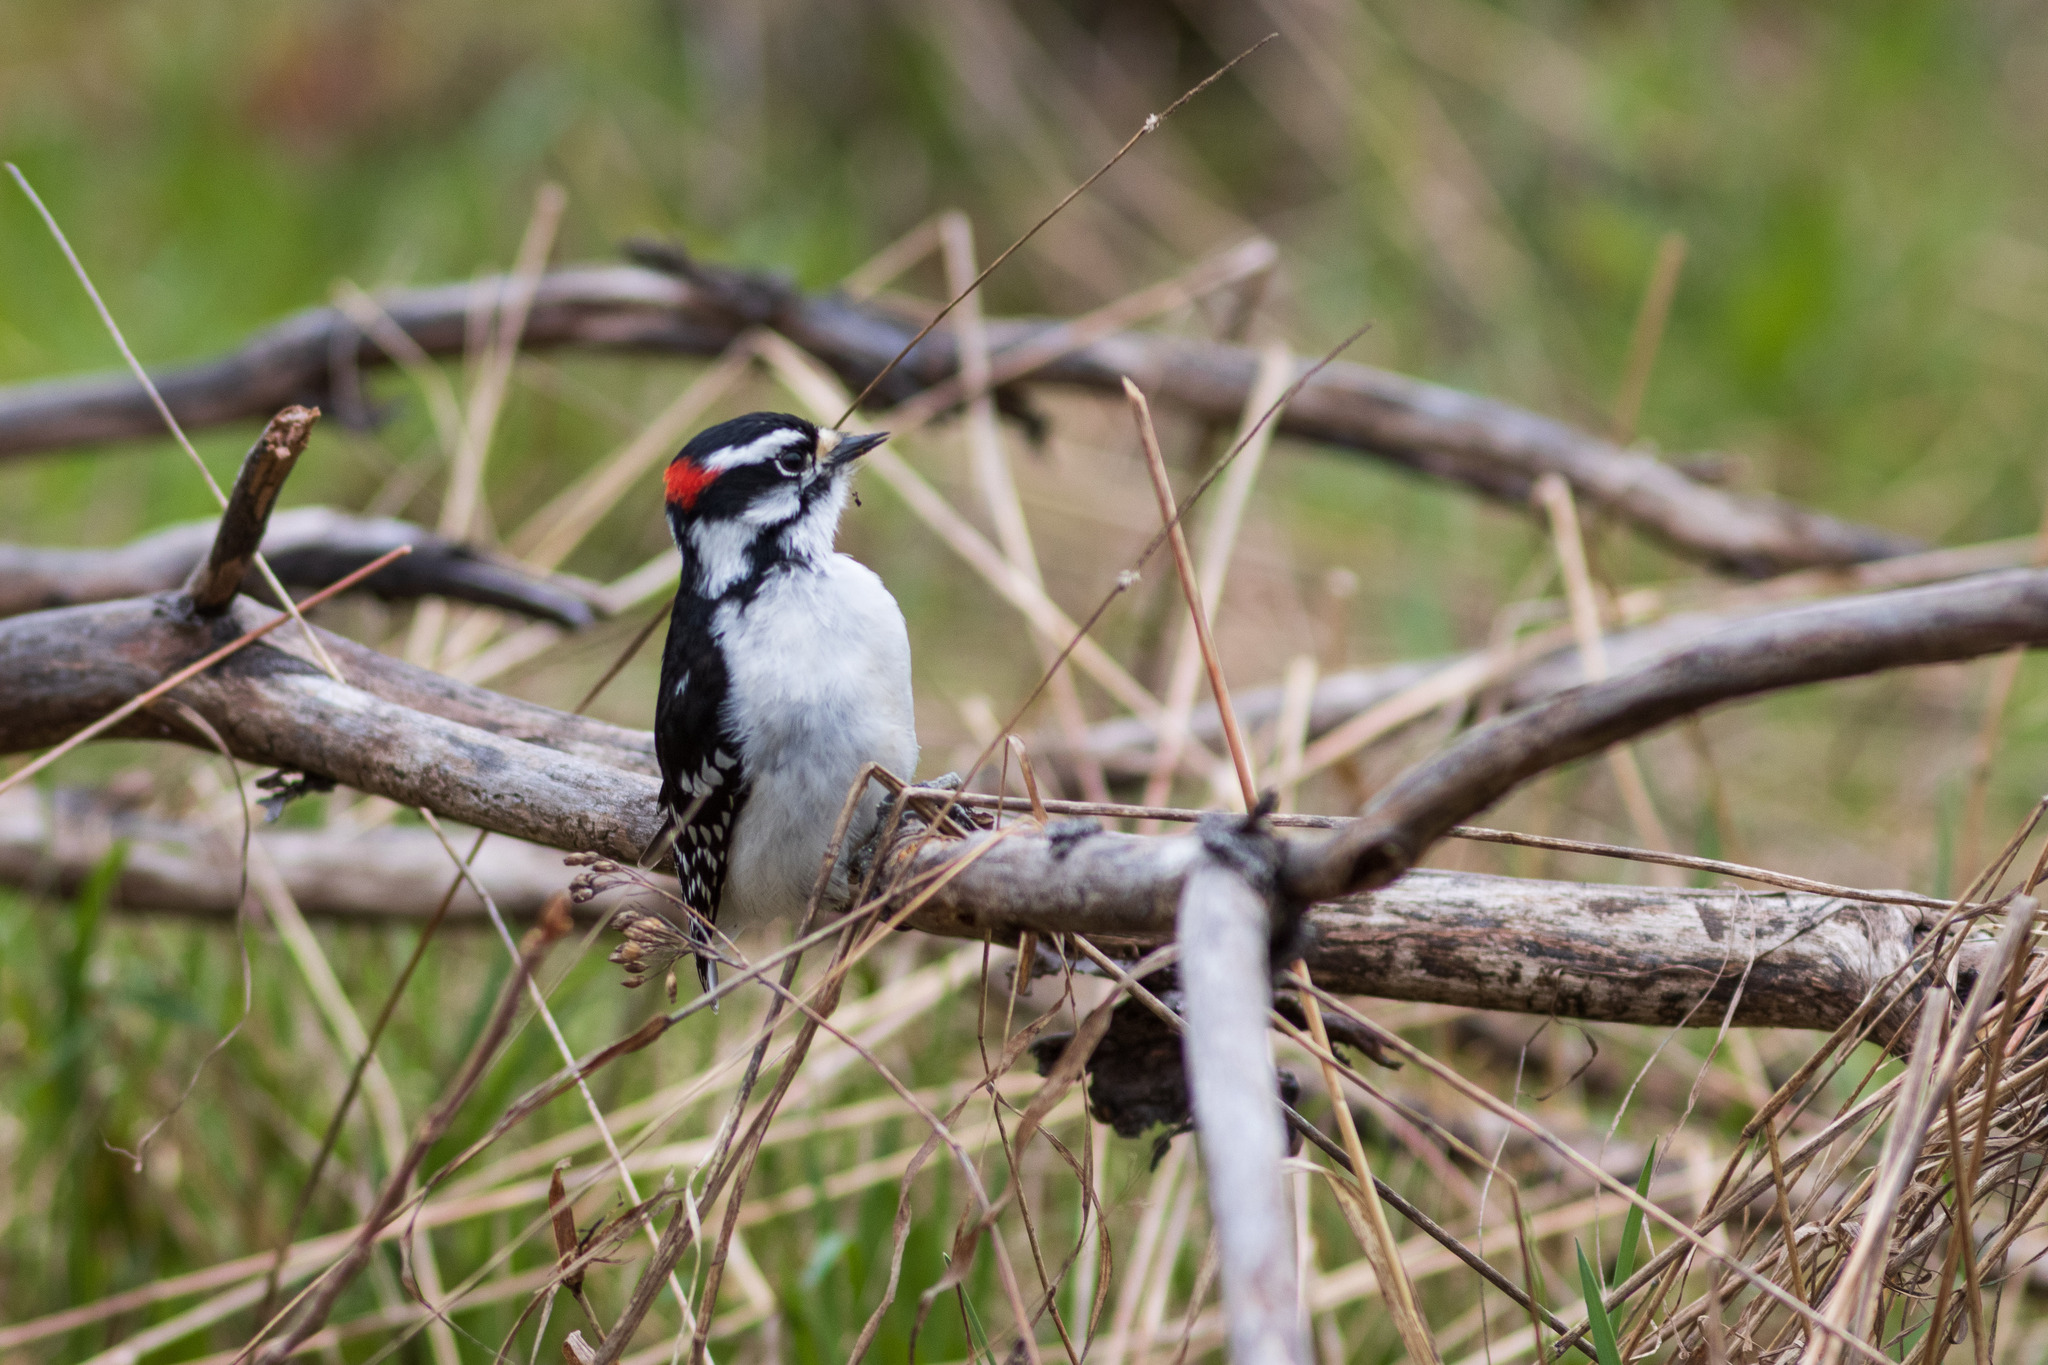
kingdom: Animalia
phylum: Chordata
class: Aves
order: Piciformes
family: Picidae
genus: Dryobates
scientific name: Dryobates pubescens
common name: Downy woodpecker
